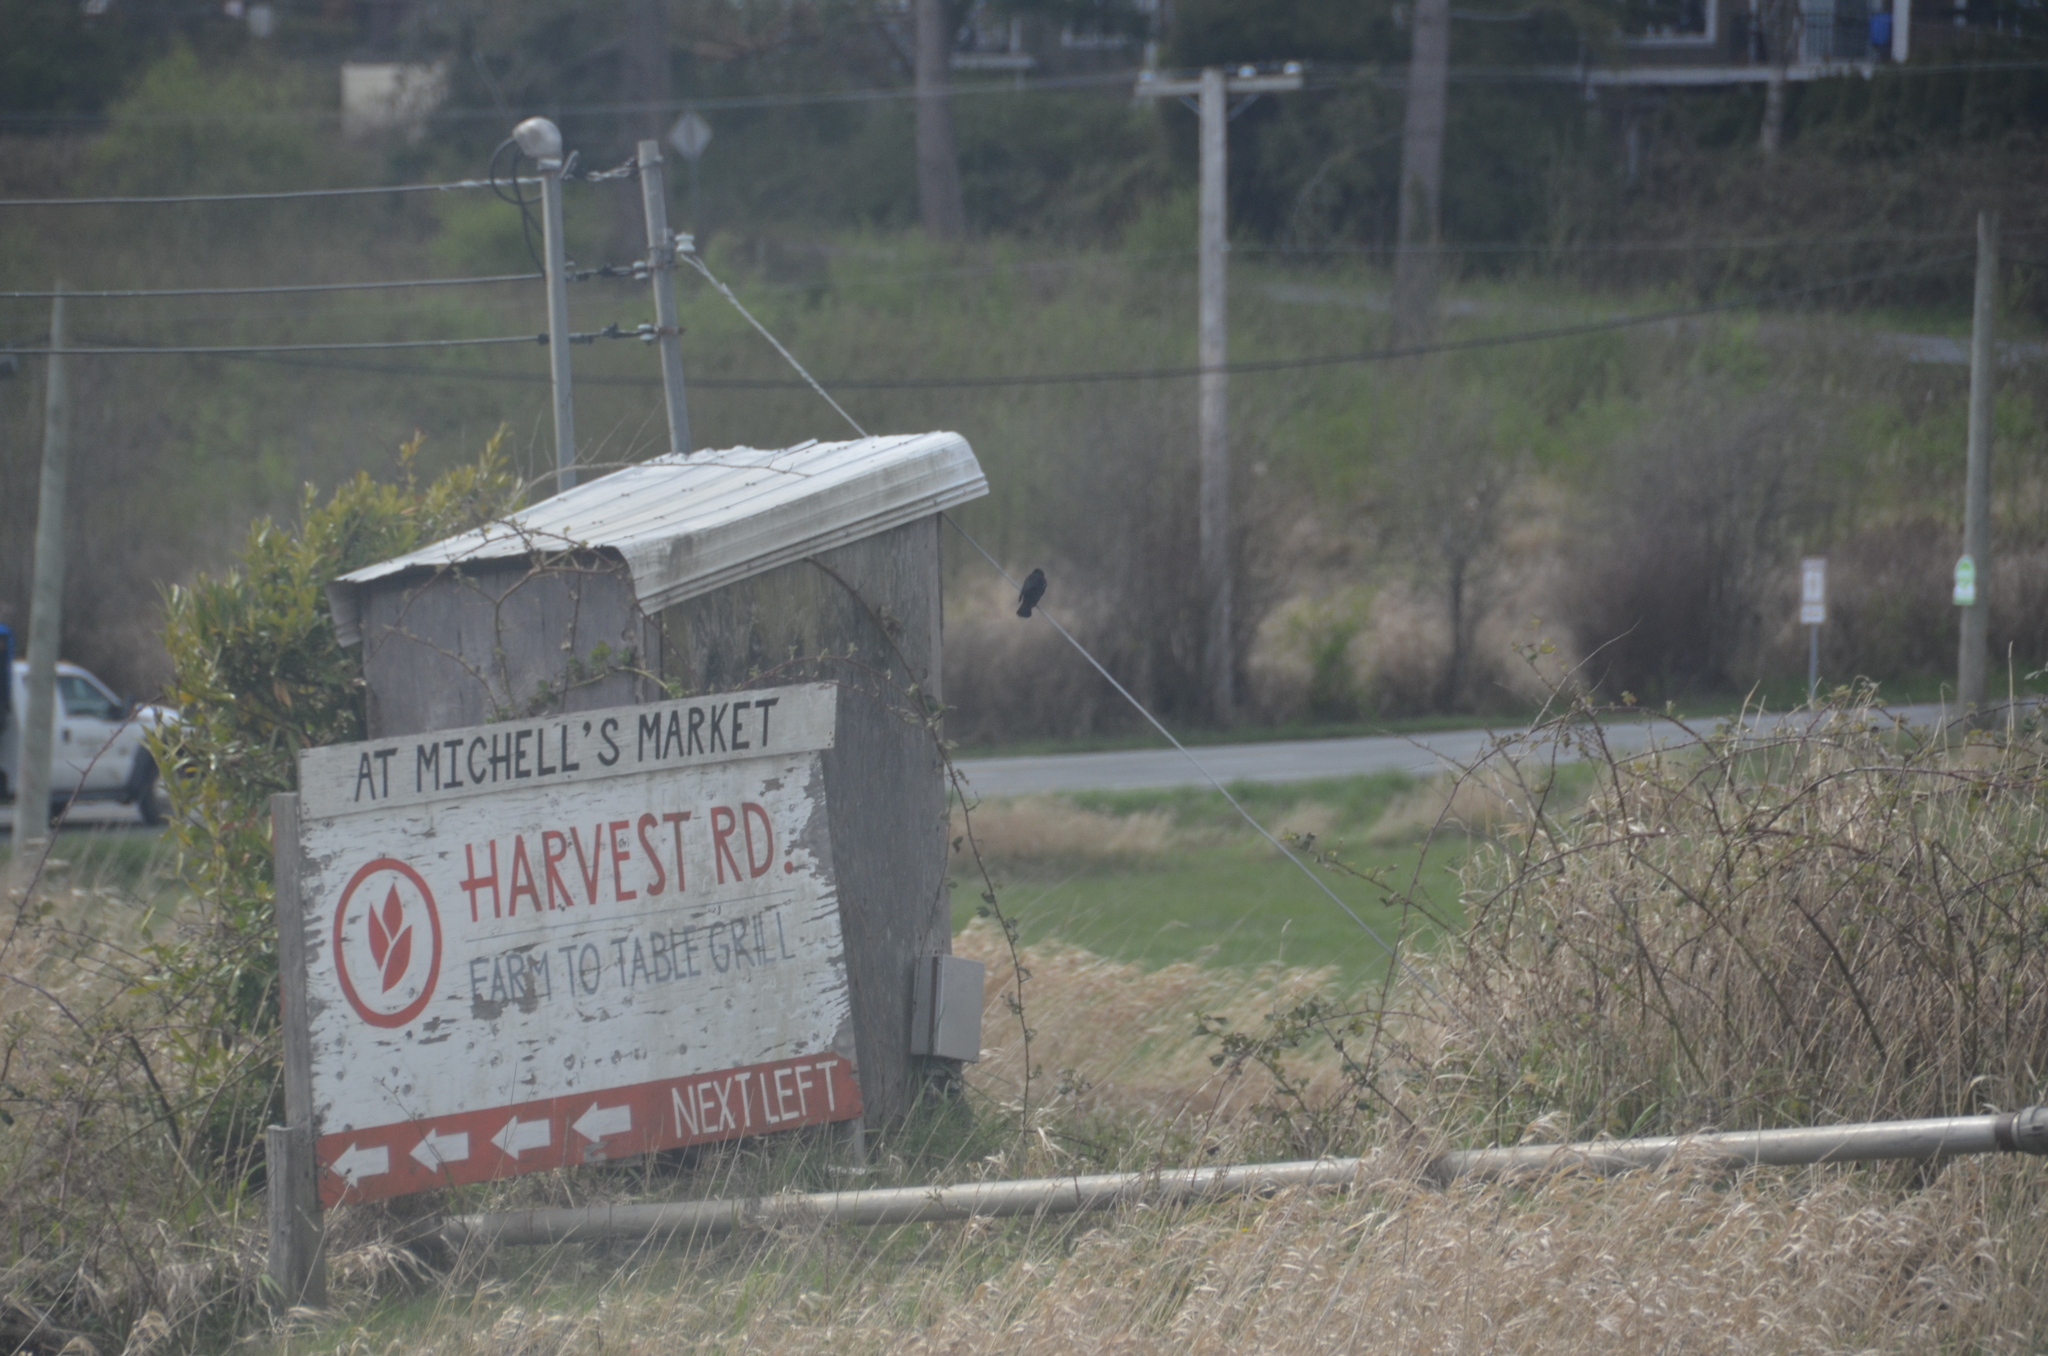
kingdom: Animalia
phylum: Chordata
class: Aves
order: Passeriformes
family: Icteridae
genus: Agelaius
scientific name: Agelaius phoeniceus
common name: Red-winged blackbird
